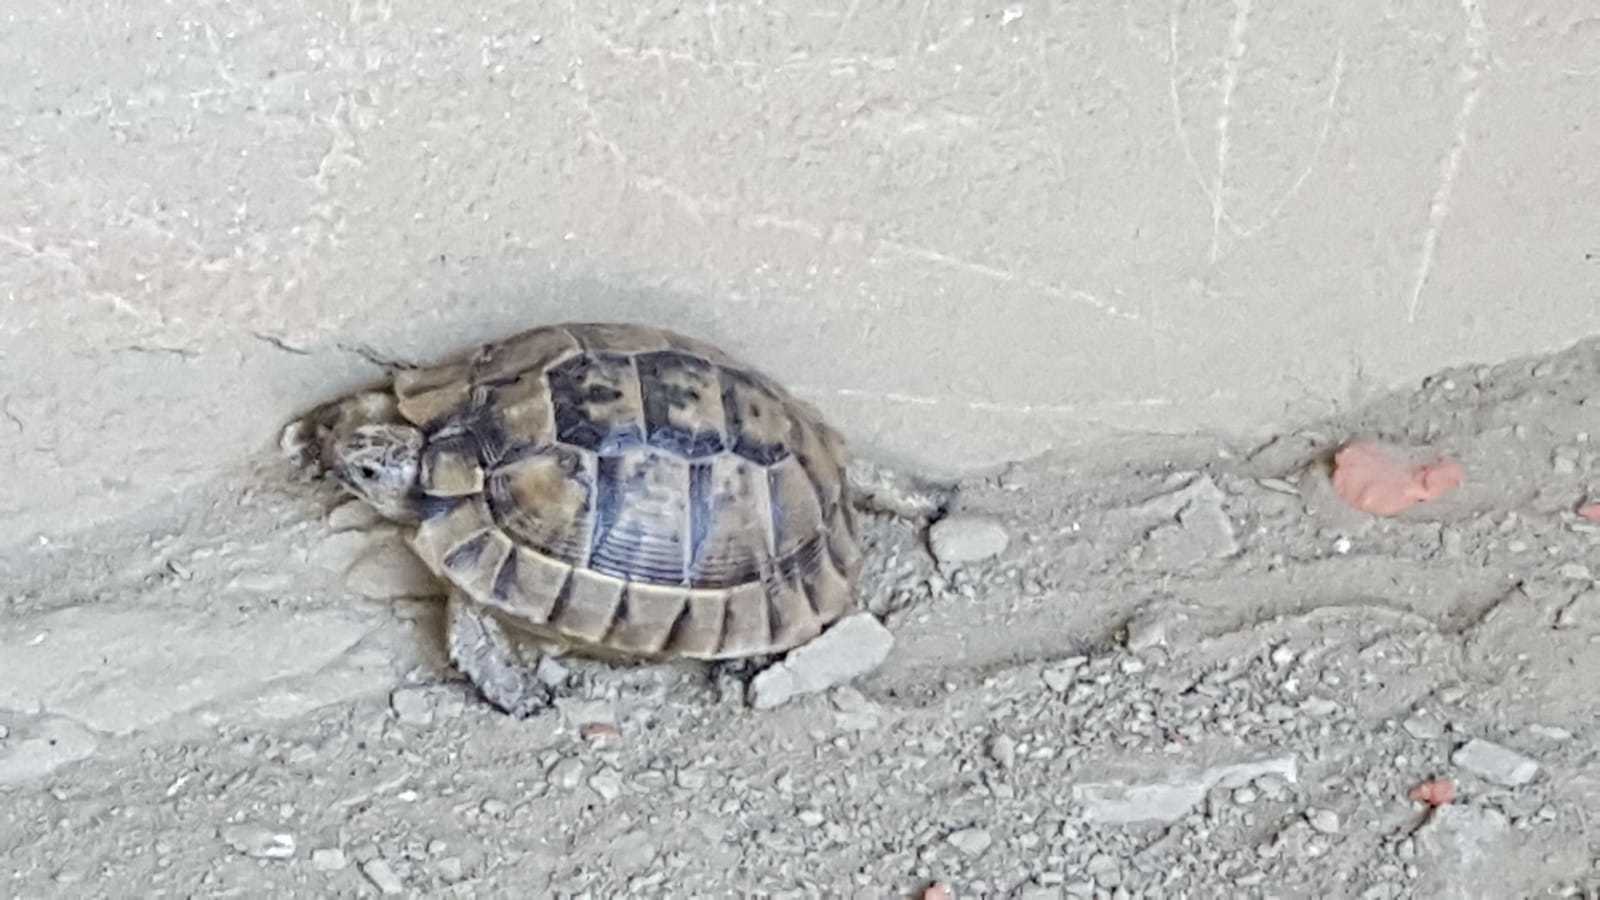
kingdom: Animalia
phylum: Chordata
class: Testudines
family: Testudinidae
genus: Testudo
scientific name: Testudo graeca
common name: Common tortoise
